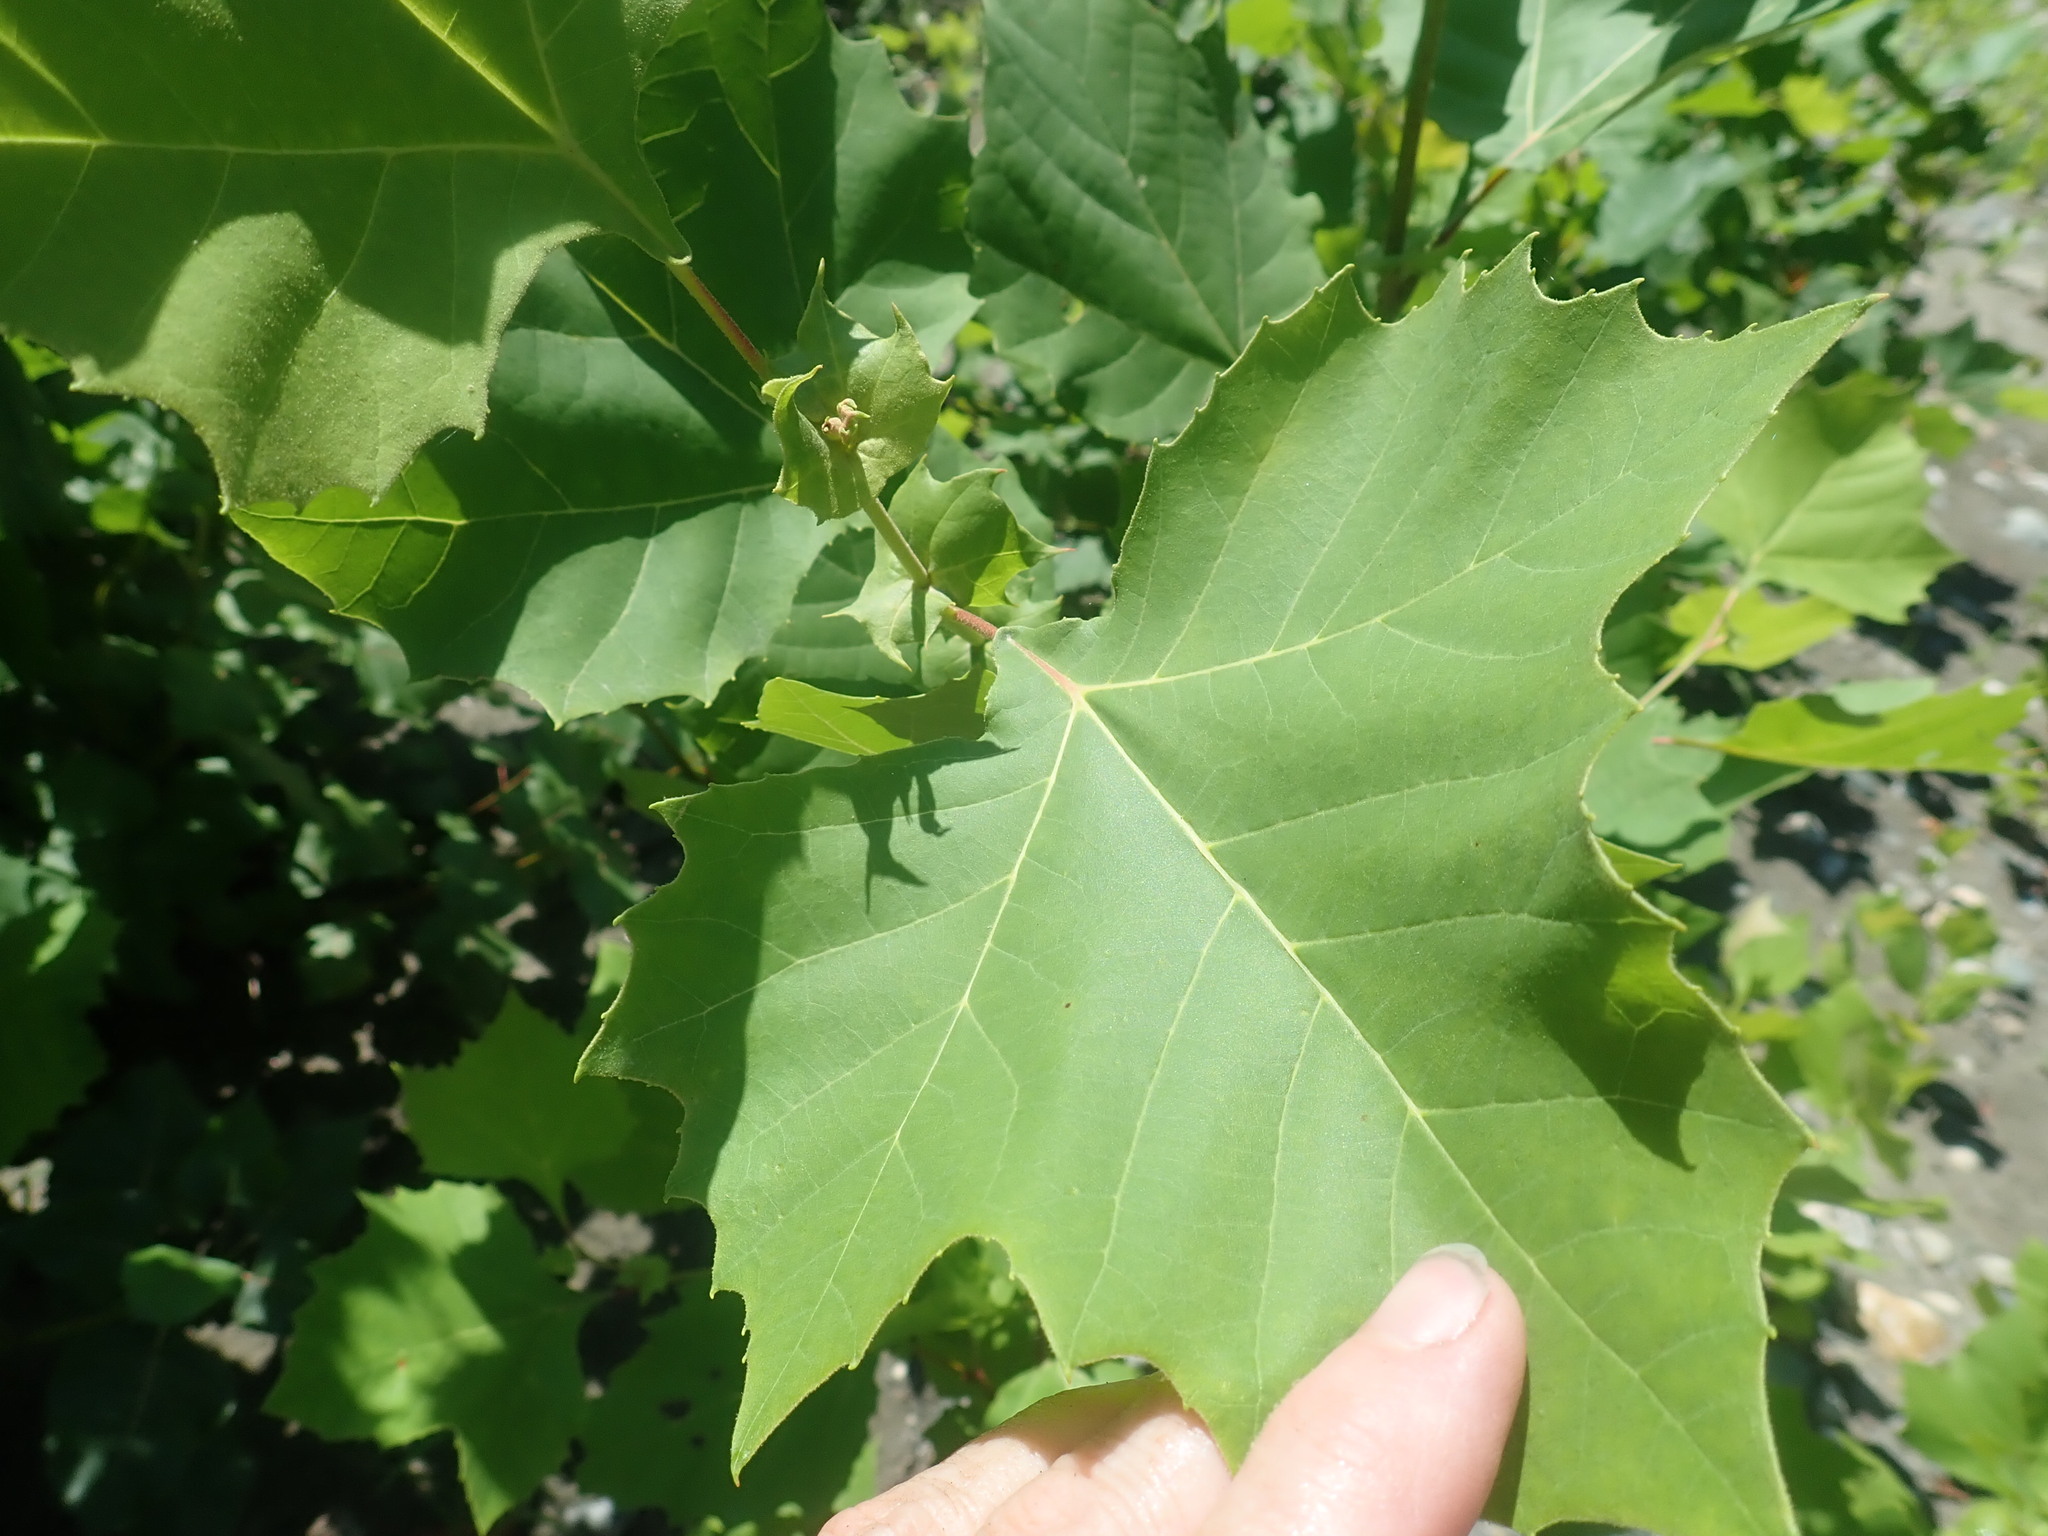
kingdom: Plantae
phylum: Tracheophyta
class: Magnoliopsida
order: Proteales
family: Platanaceae
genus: Platanus
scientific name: Platanus occidentalis
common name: American sycamore
